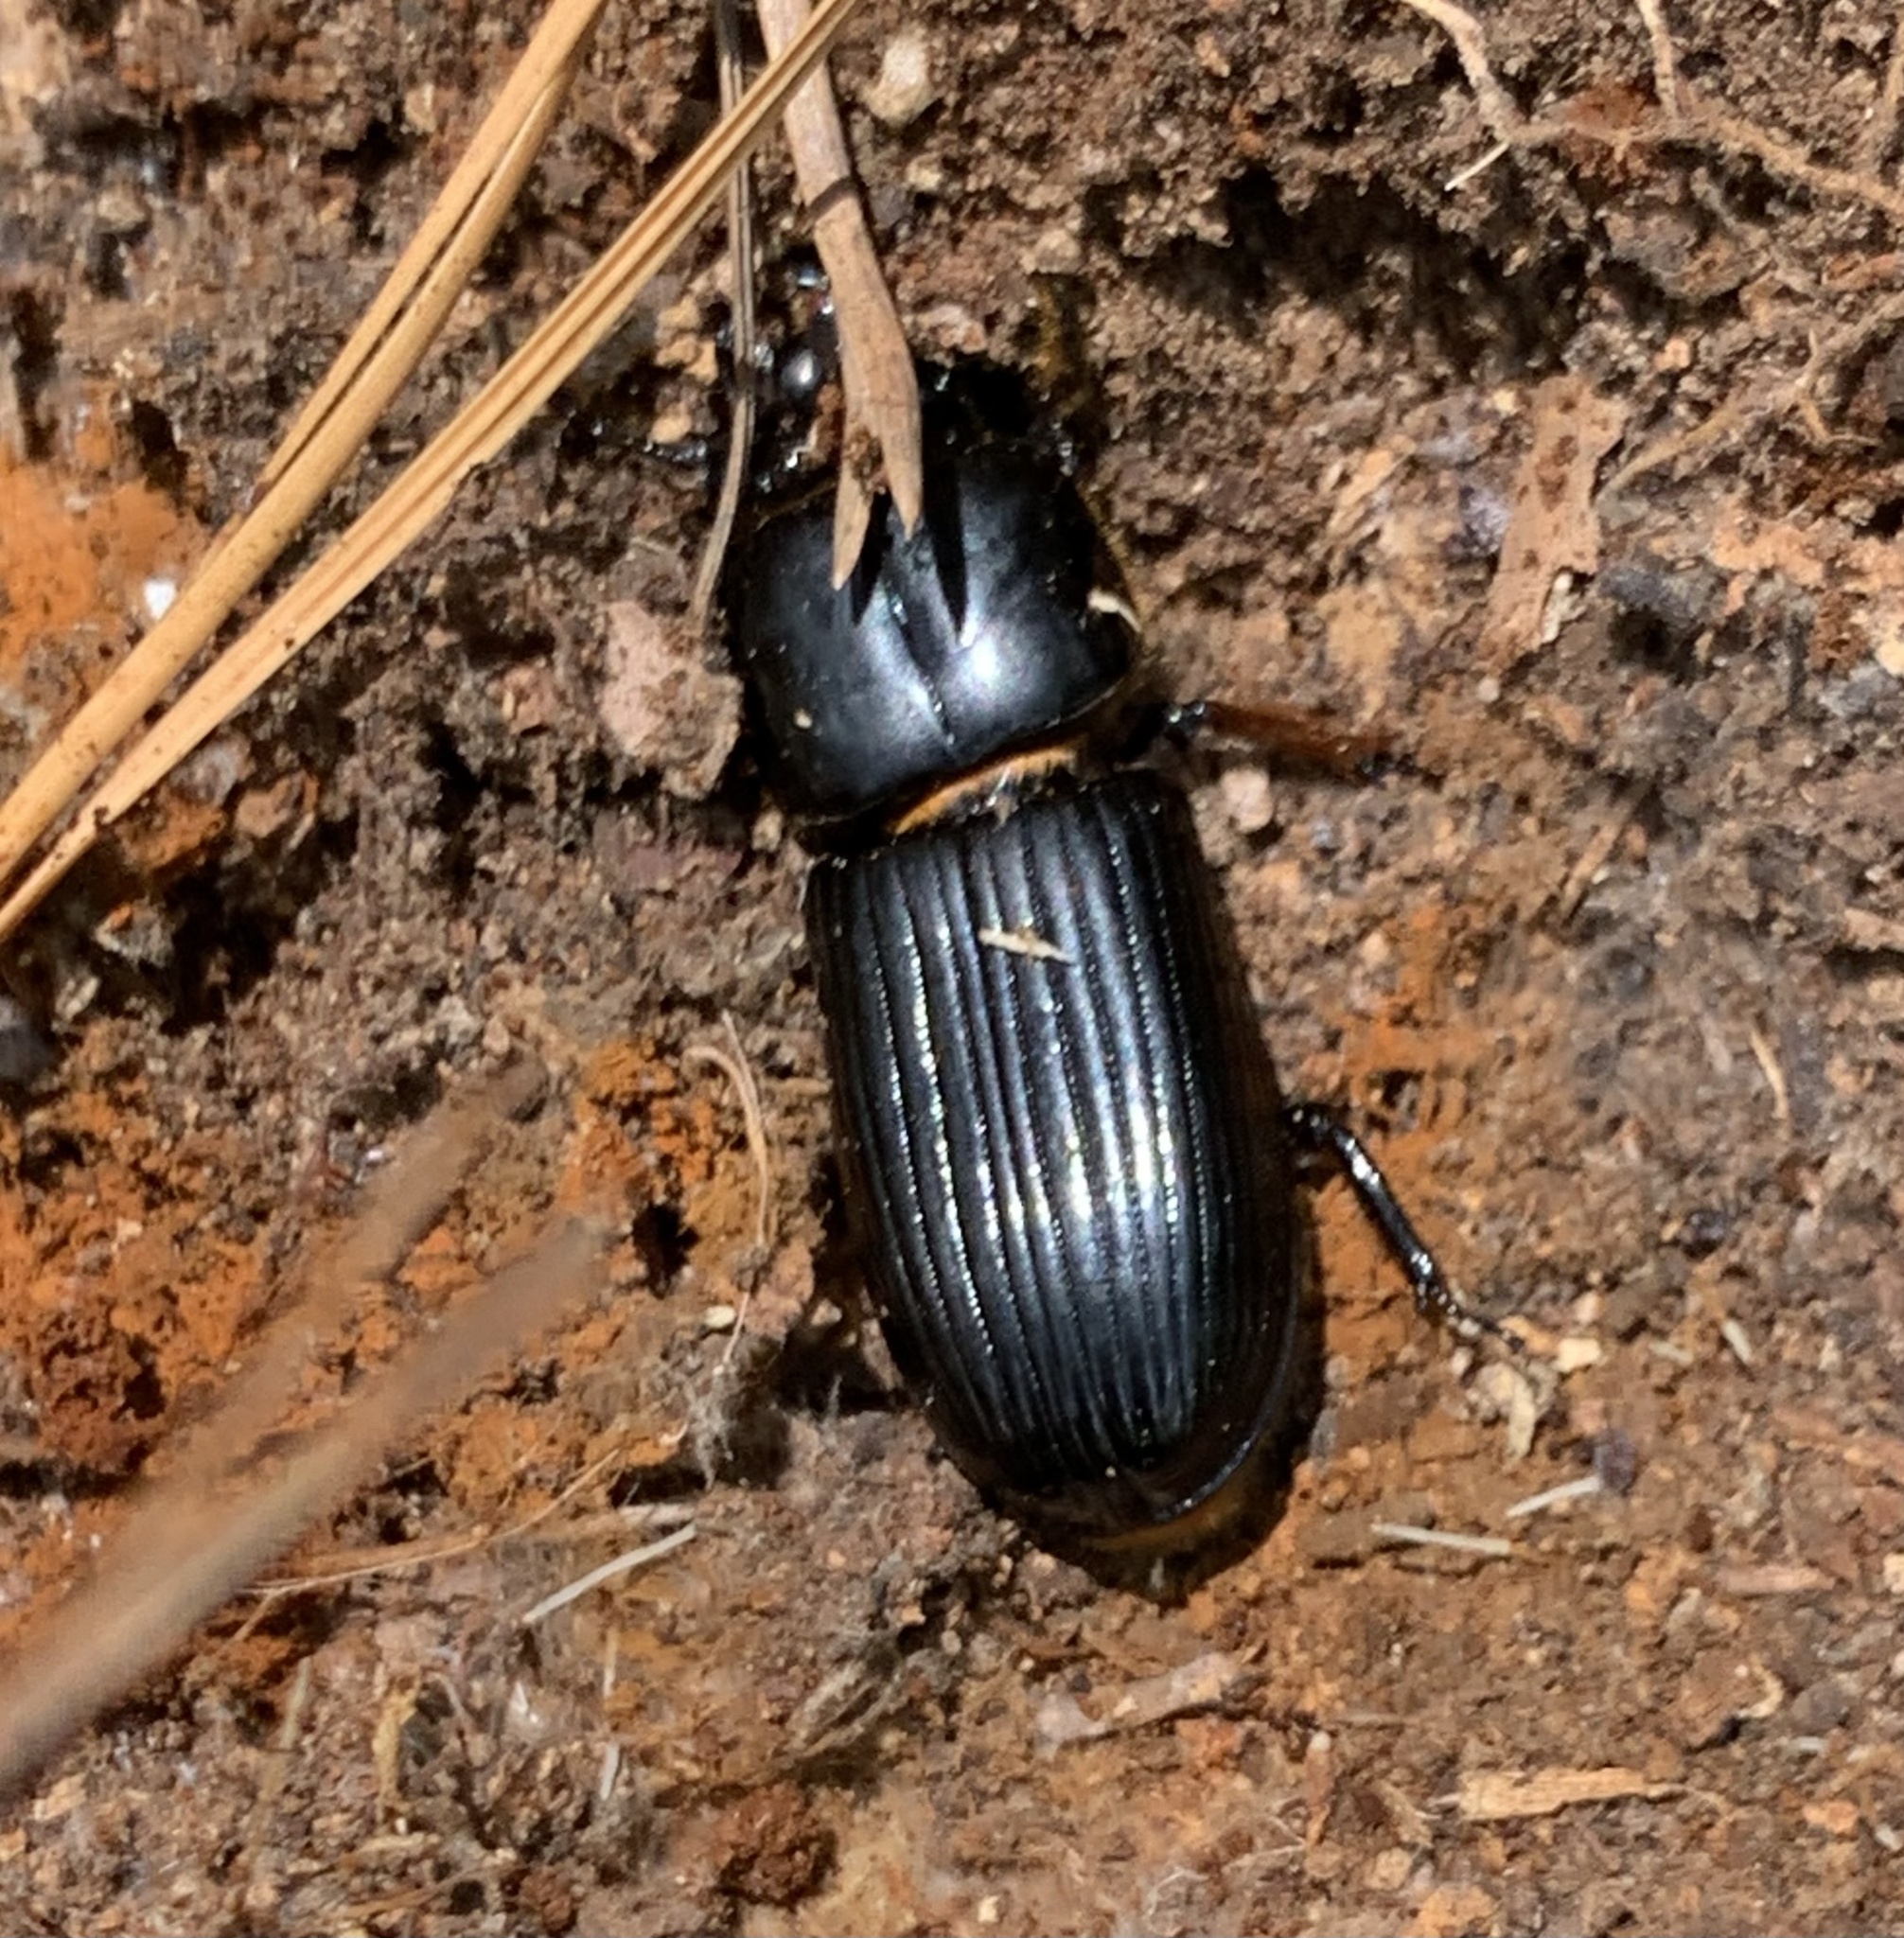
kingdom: Animalia
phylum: Arthropoda
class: Insecta
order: Coleoptera
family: Passalidae
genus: Odontotaenius
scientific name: Odontotaenius disjunctus
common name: Patent leather beetle
